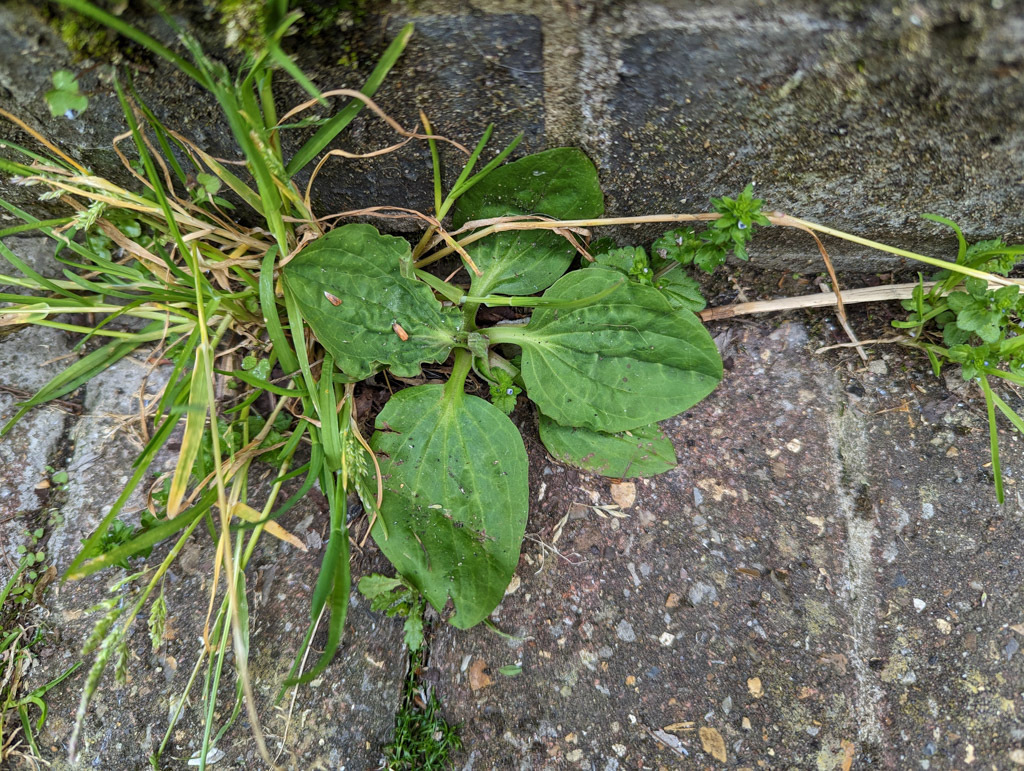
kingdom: Plantae
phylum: Tracheophyta
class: Magnoliopsida
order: Lamiales
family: Plantaginaceae
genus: Plantago
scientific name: Plantago major
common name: Common plantain
